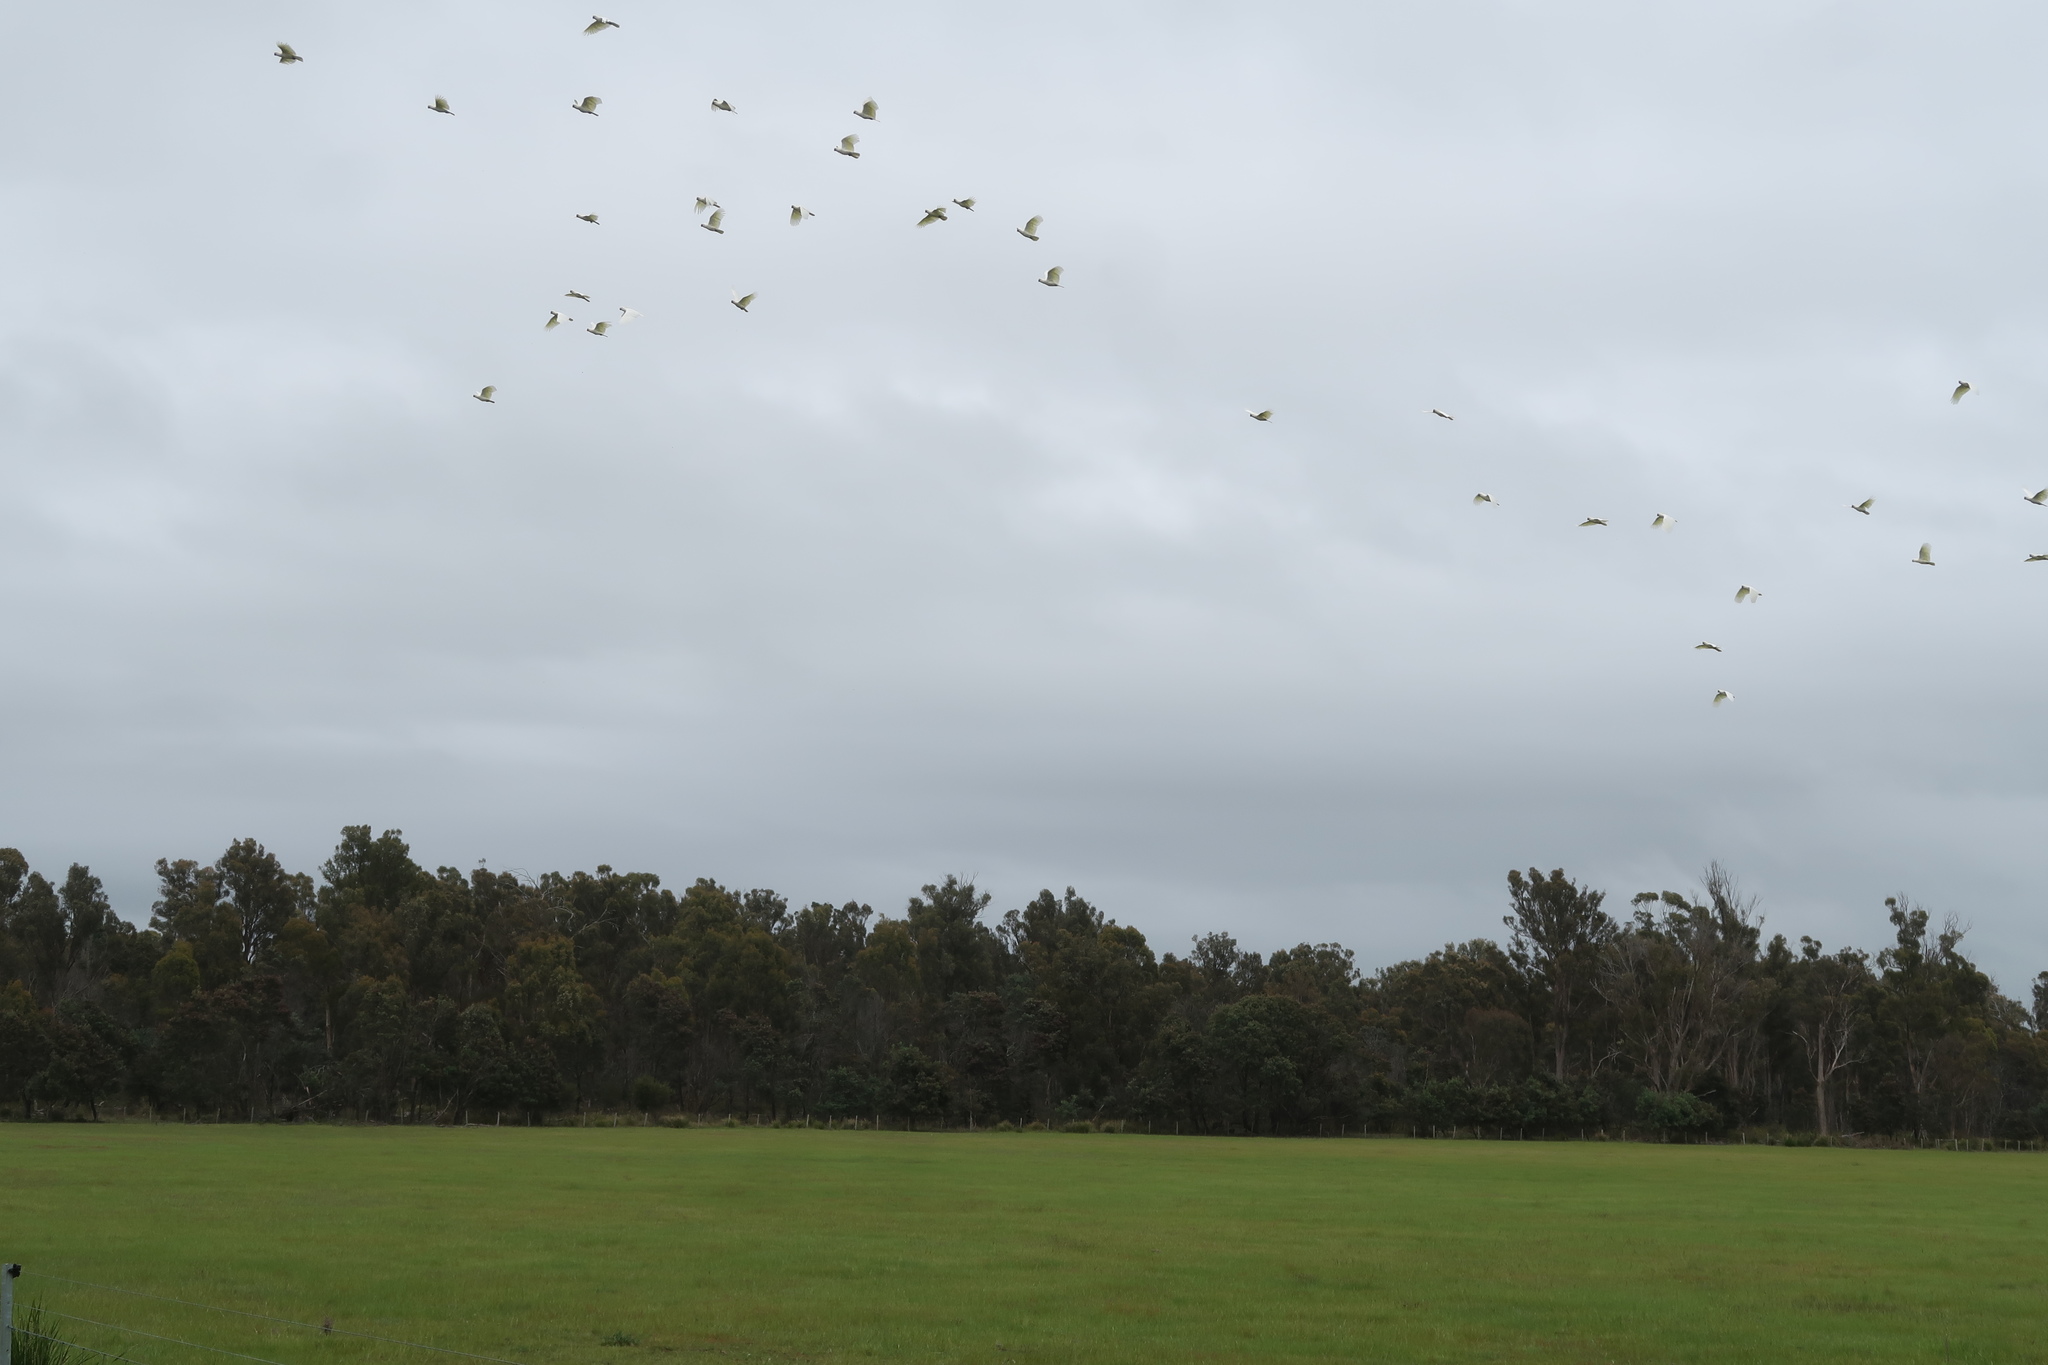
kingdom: Animalia
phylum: Chordata
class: Aves
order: Psittaciformes
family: Psittacidae
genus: Cacatua
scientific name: Cacatua galerita
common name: Sulphur-crested cockatoo
